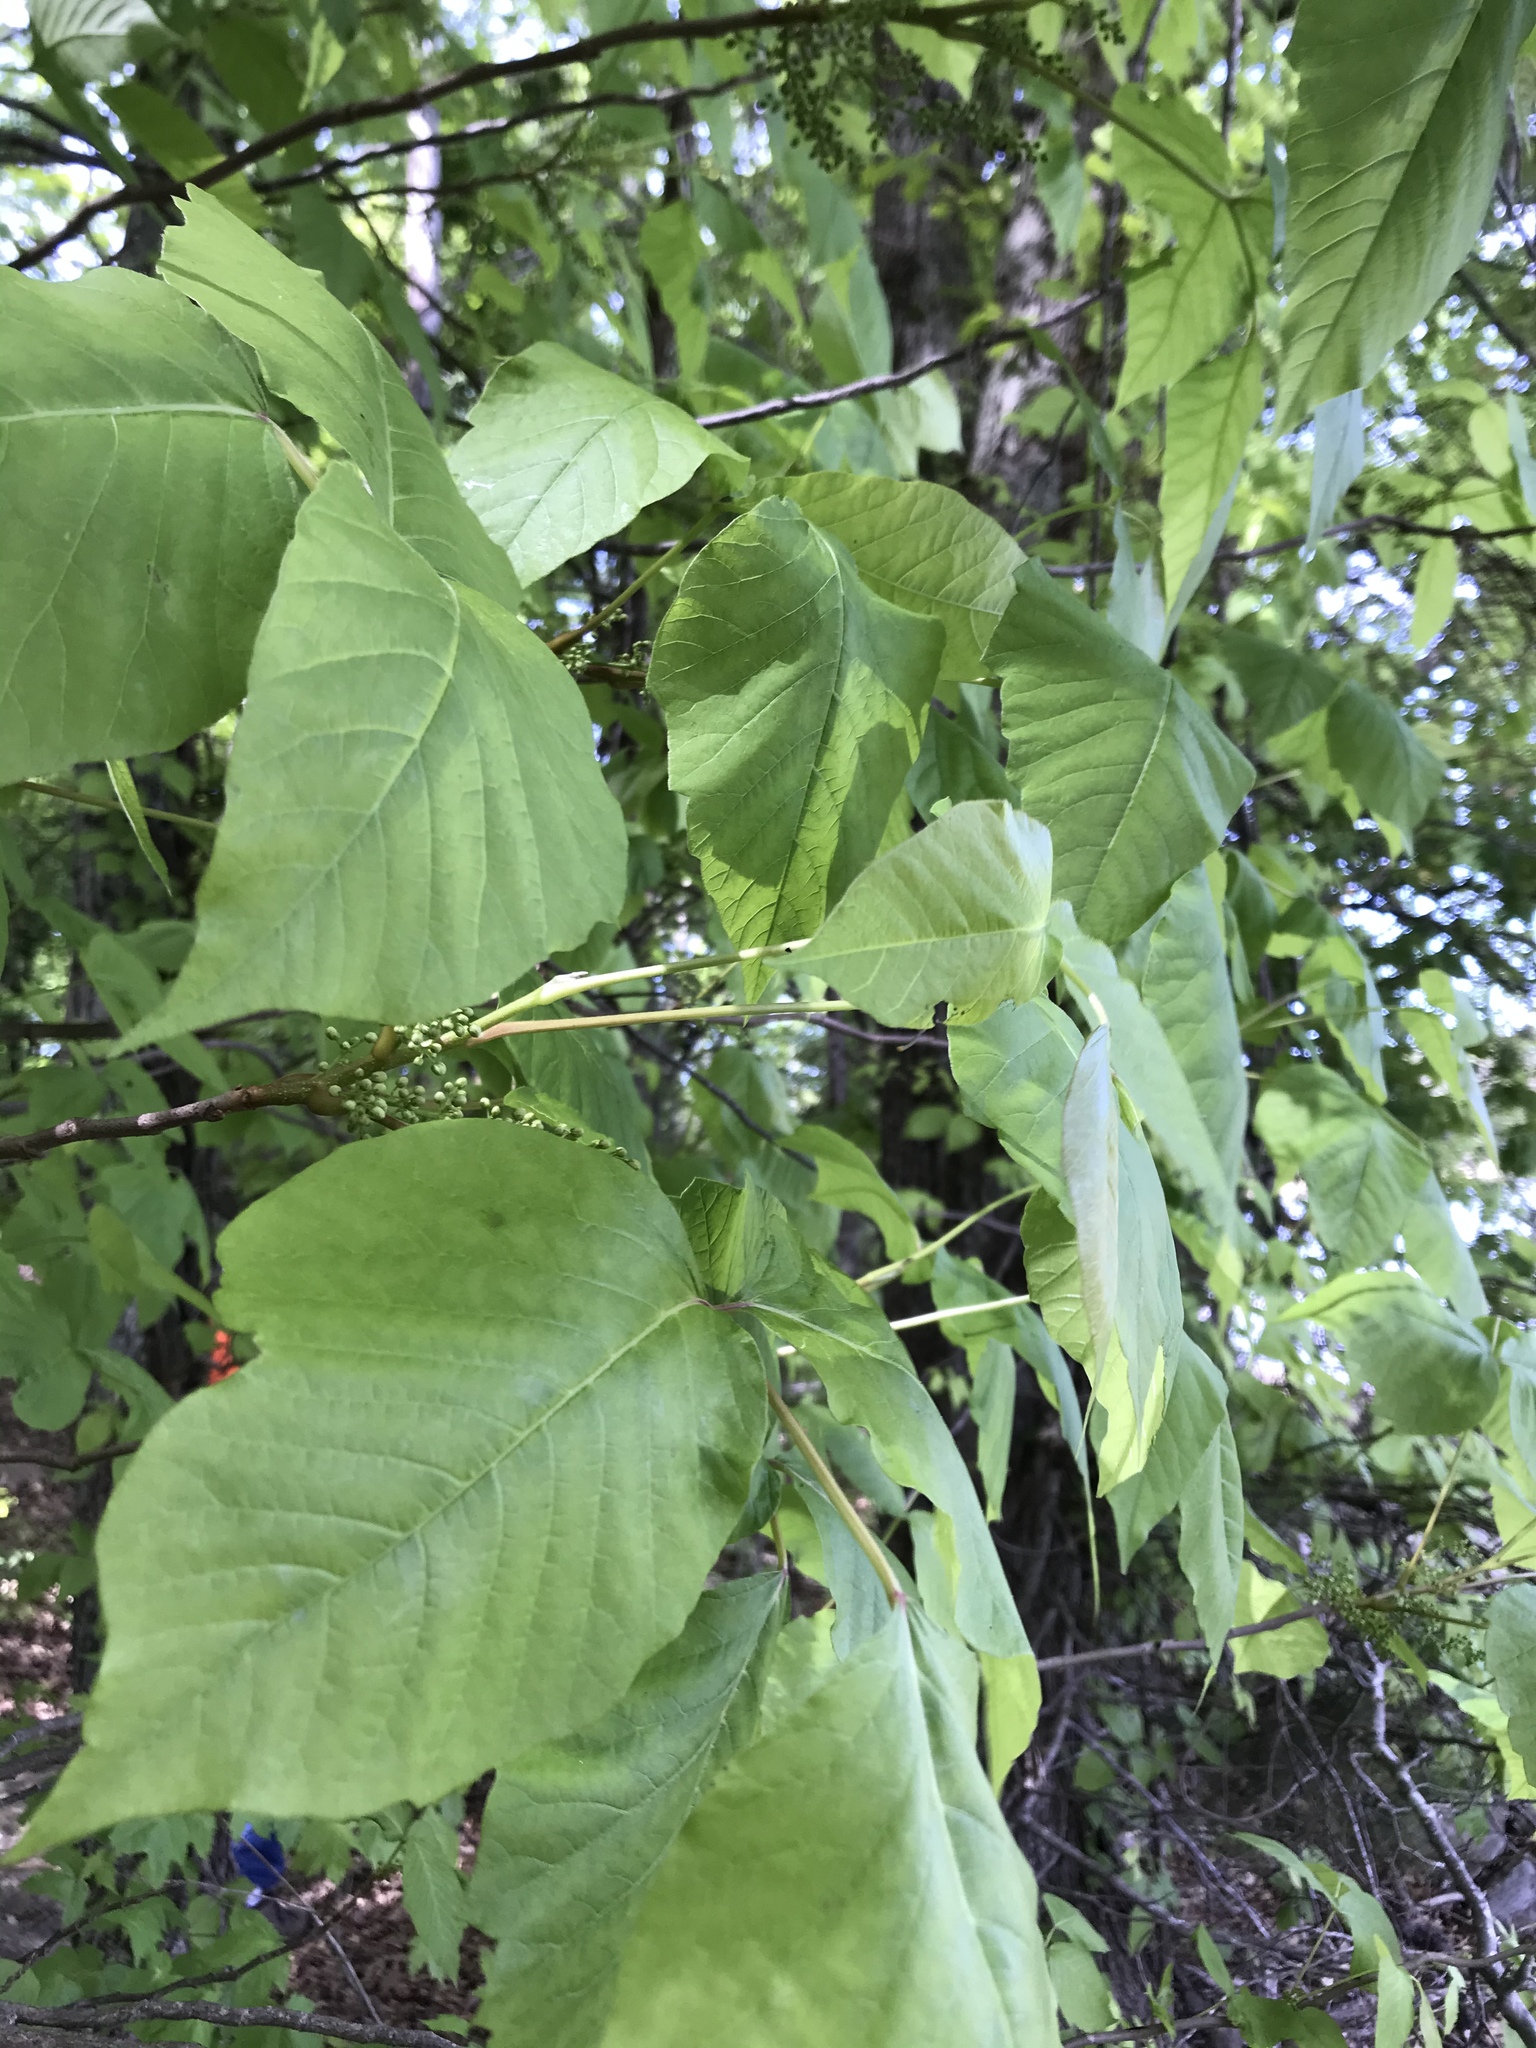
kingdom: Plantae
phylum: Tracheophyta
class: Magnoliopsida
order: Sapindales
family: Anacardiaceae
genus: Toxicodendron
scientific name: Toxicodendron radicans
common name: Poison ivy
